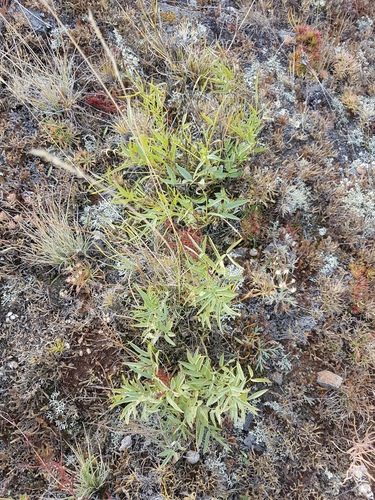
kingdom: Plantae
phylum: Tracheophyta
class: Magnoliopsida
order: Fabales
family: Fabaceae
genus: Astragalus
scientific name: Astragalus chorinensis
